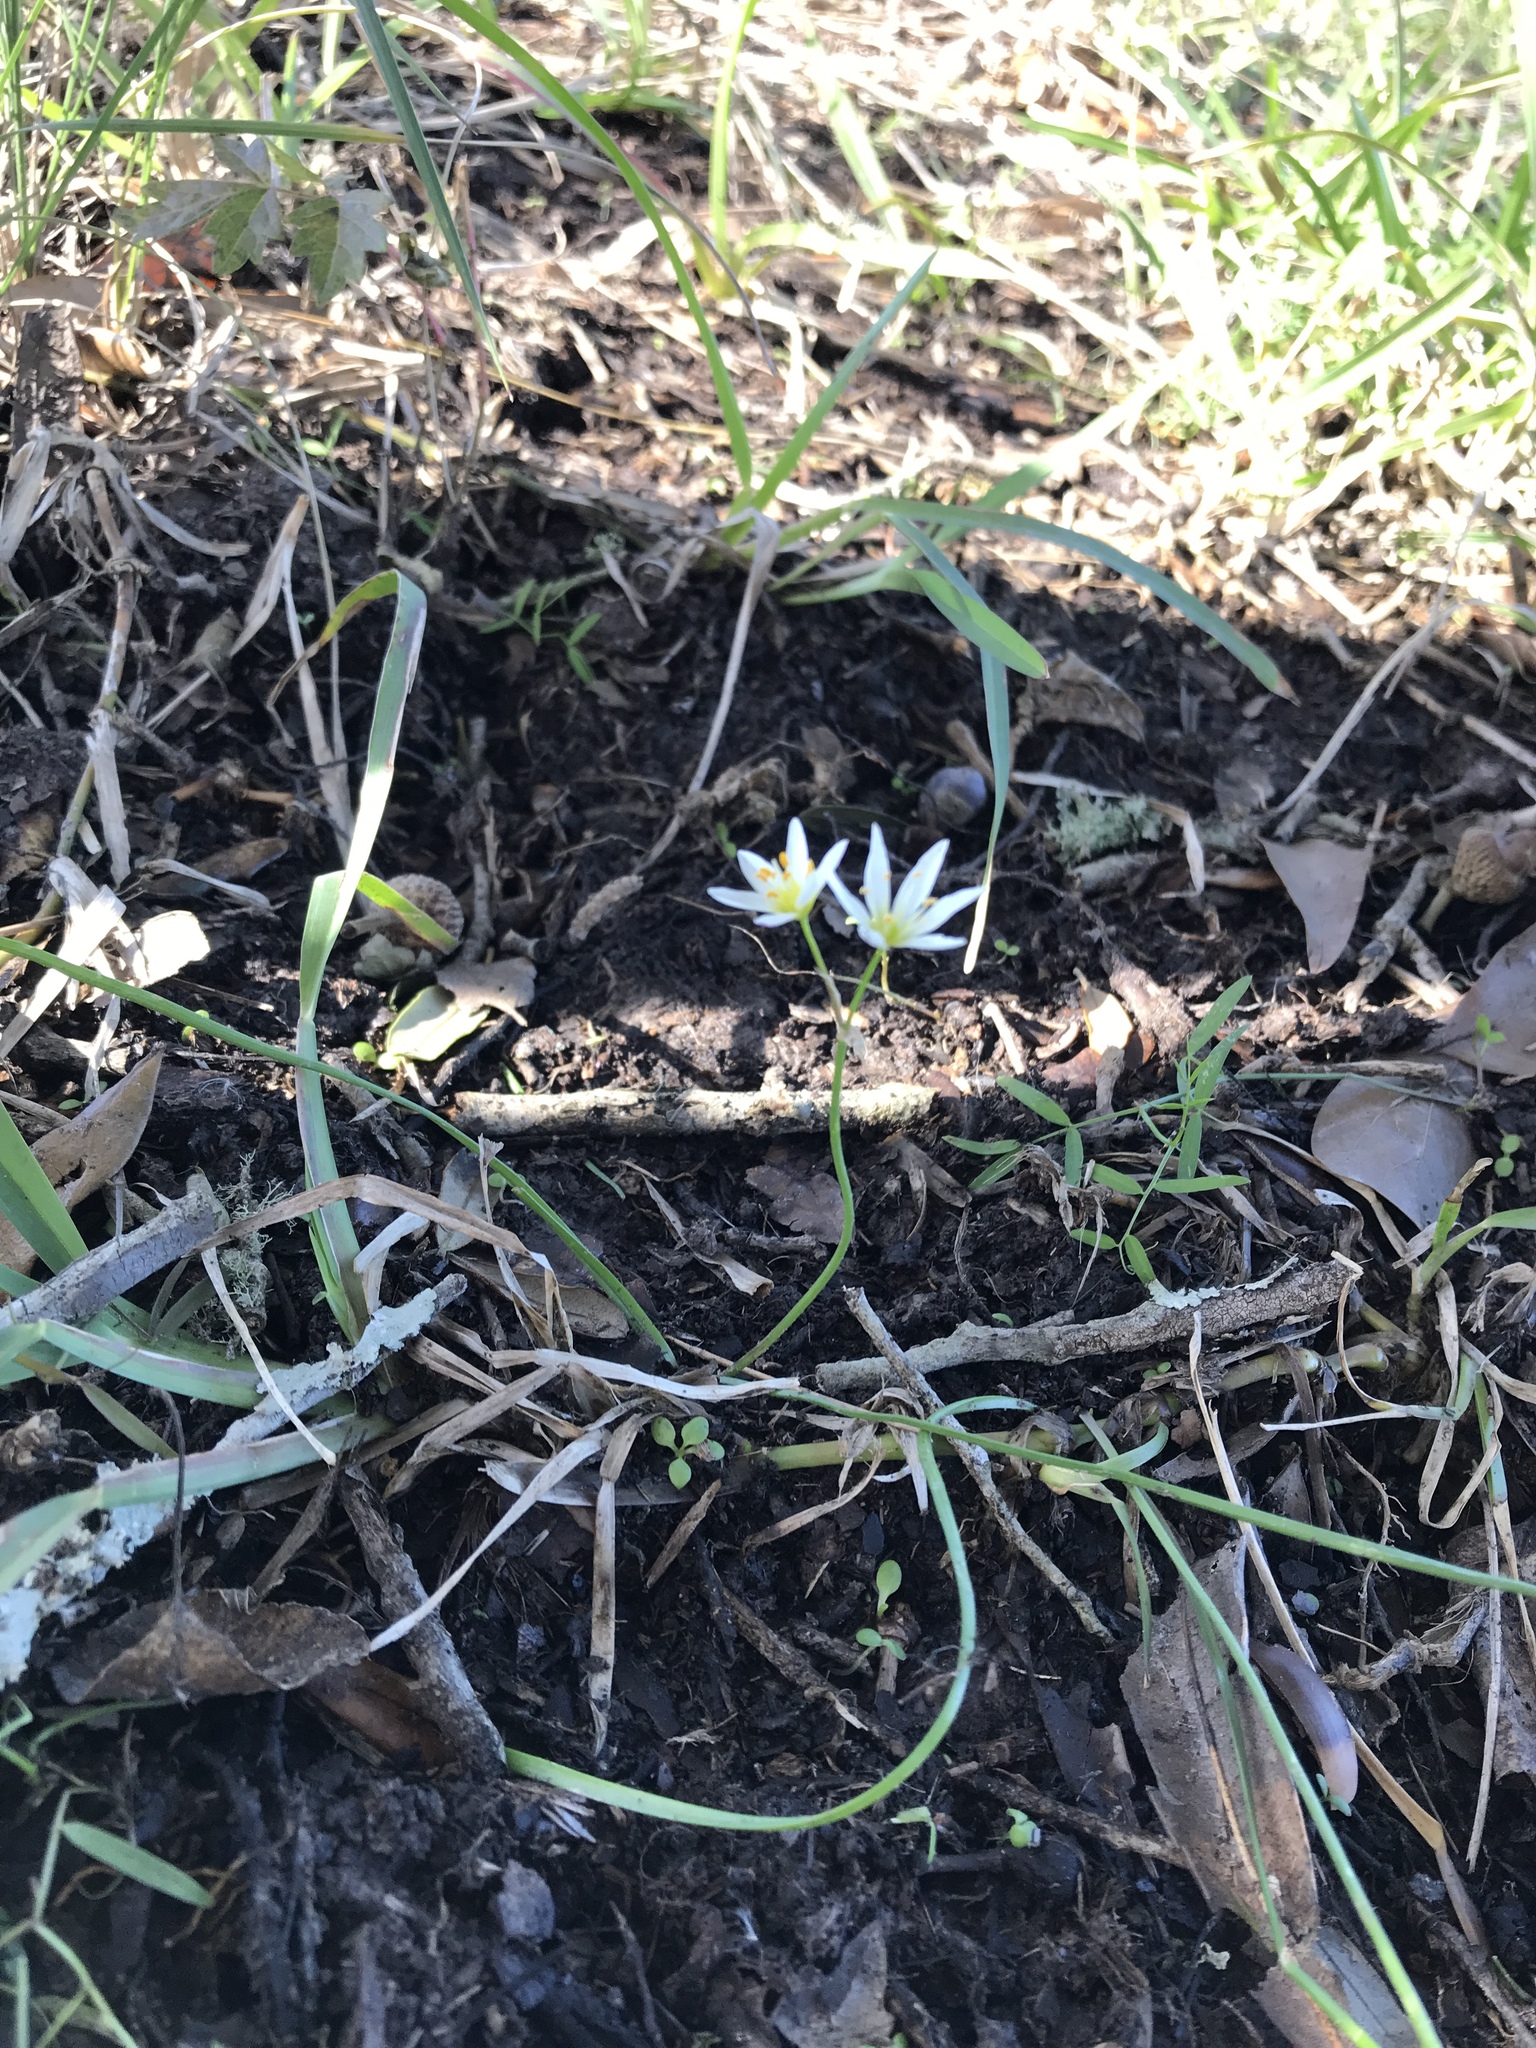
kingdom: Plantae
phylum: Tracheophyta
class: Liliopsida
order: Asparagales
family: Amaryllidaceae
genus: Nothoscordum
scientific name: Nothoscordum bivalve
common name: Crow-poison
